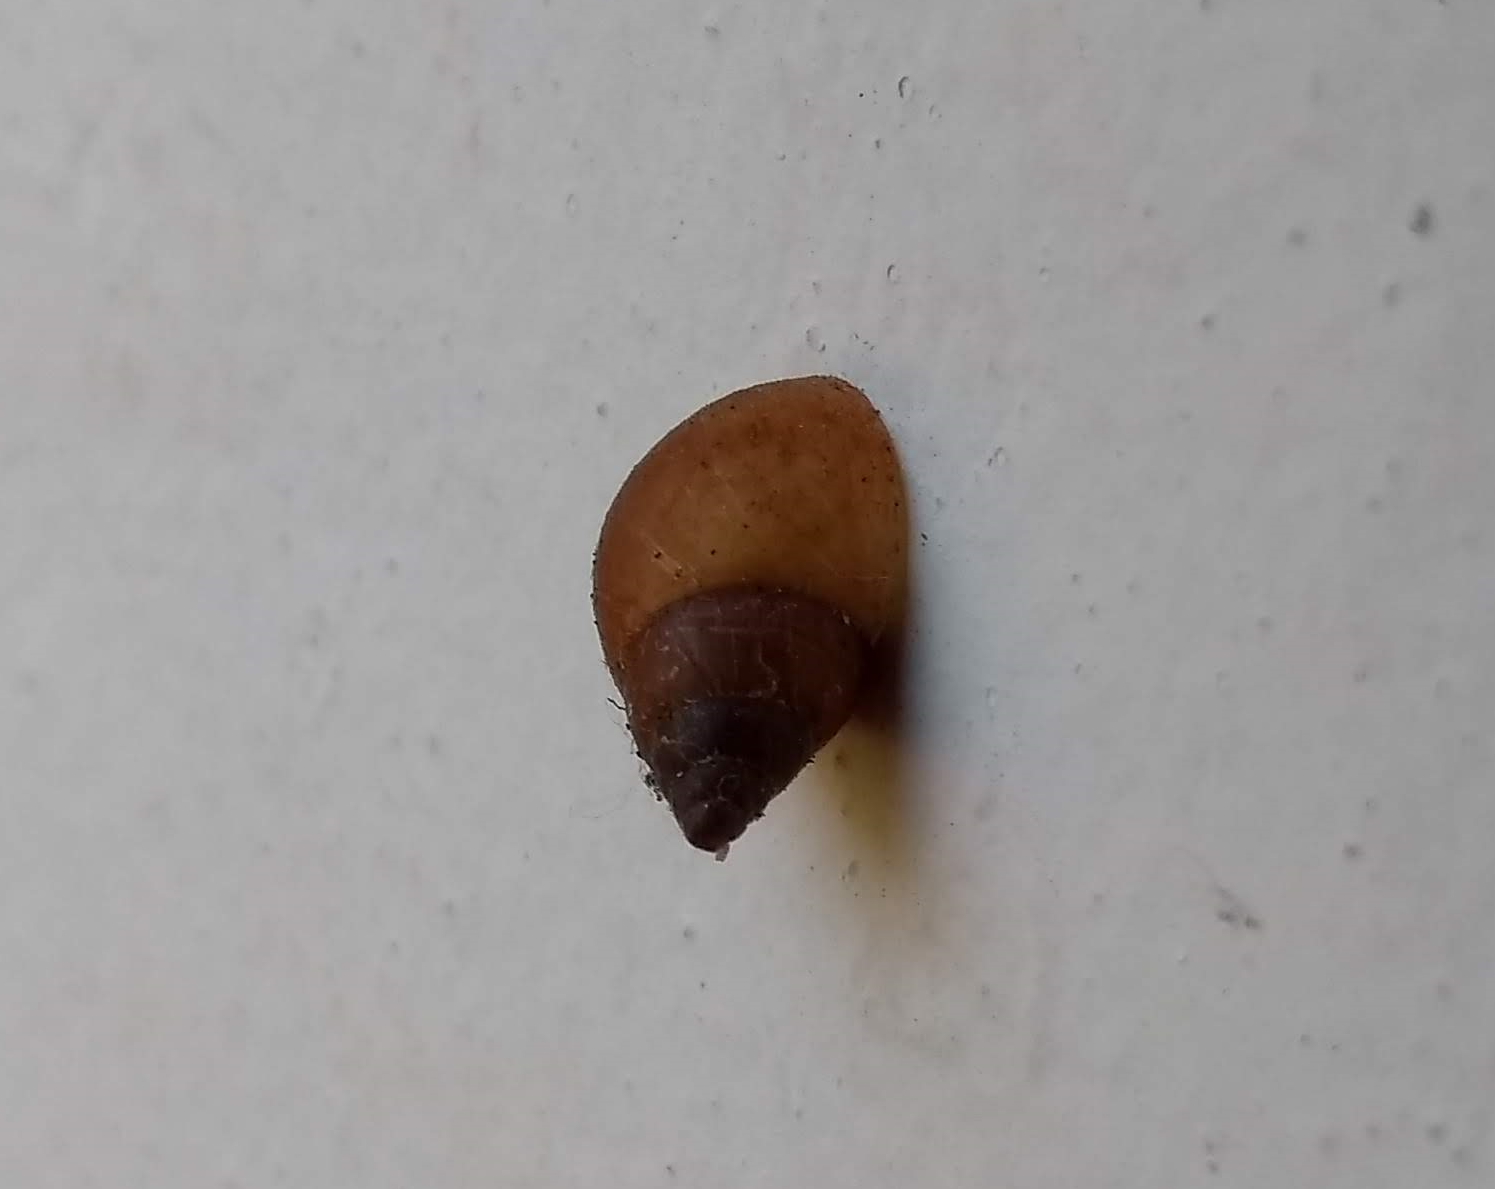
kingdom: Animalia
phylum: Mollusca
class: Gastropoda
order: Stylommatophora
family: Bulimulidae
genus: Bulimulus
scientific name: Bulimulus tenuissimus
